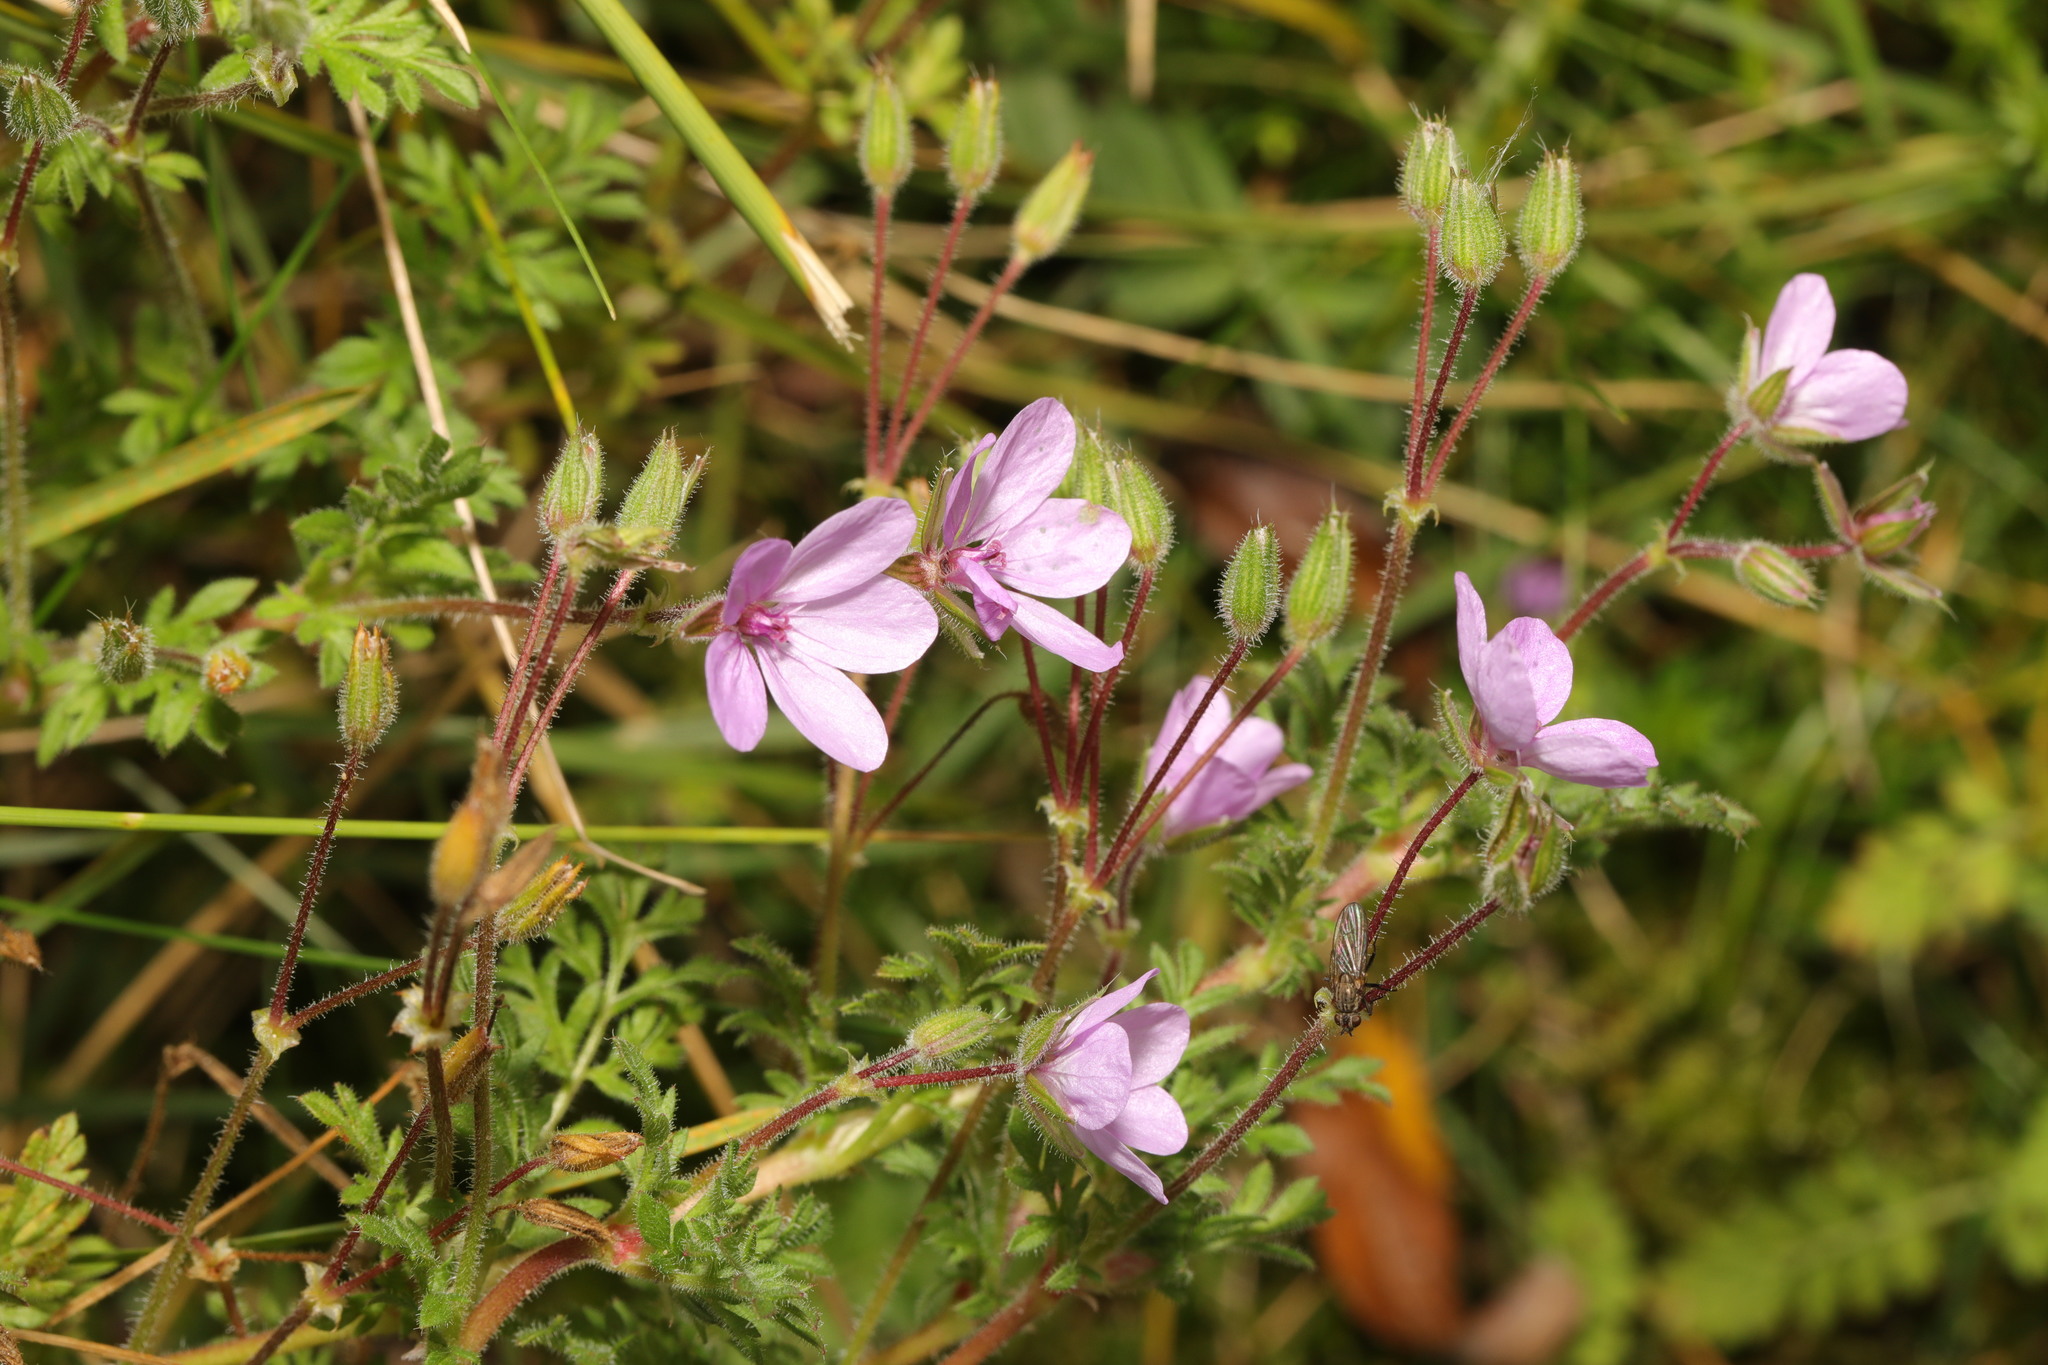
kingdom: Plantae
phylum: Tracheophyta
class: Magnoliopsida
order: Geraniales
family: Geraniaceae
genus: Erodium
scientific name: Erodium cicutarium
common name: Common stork's-bill
